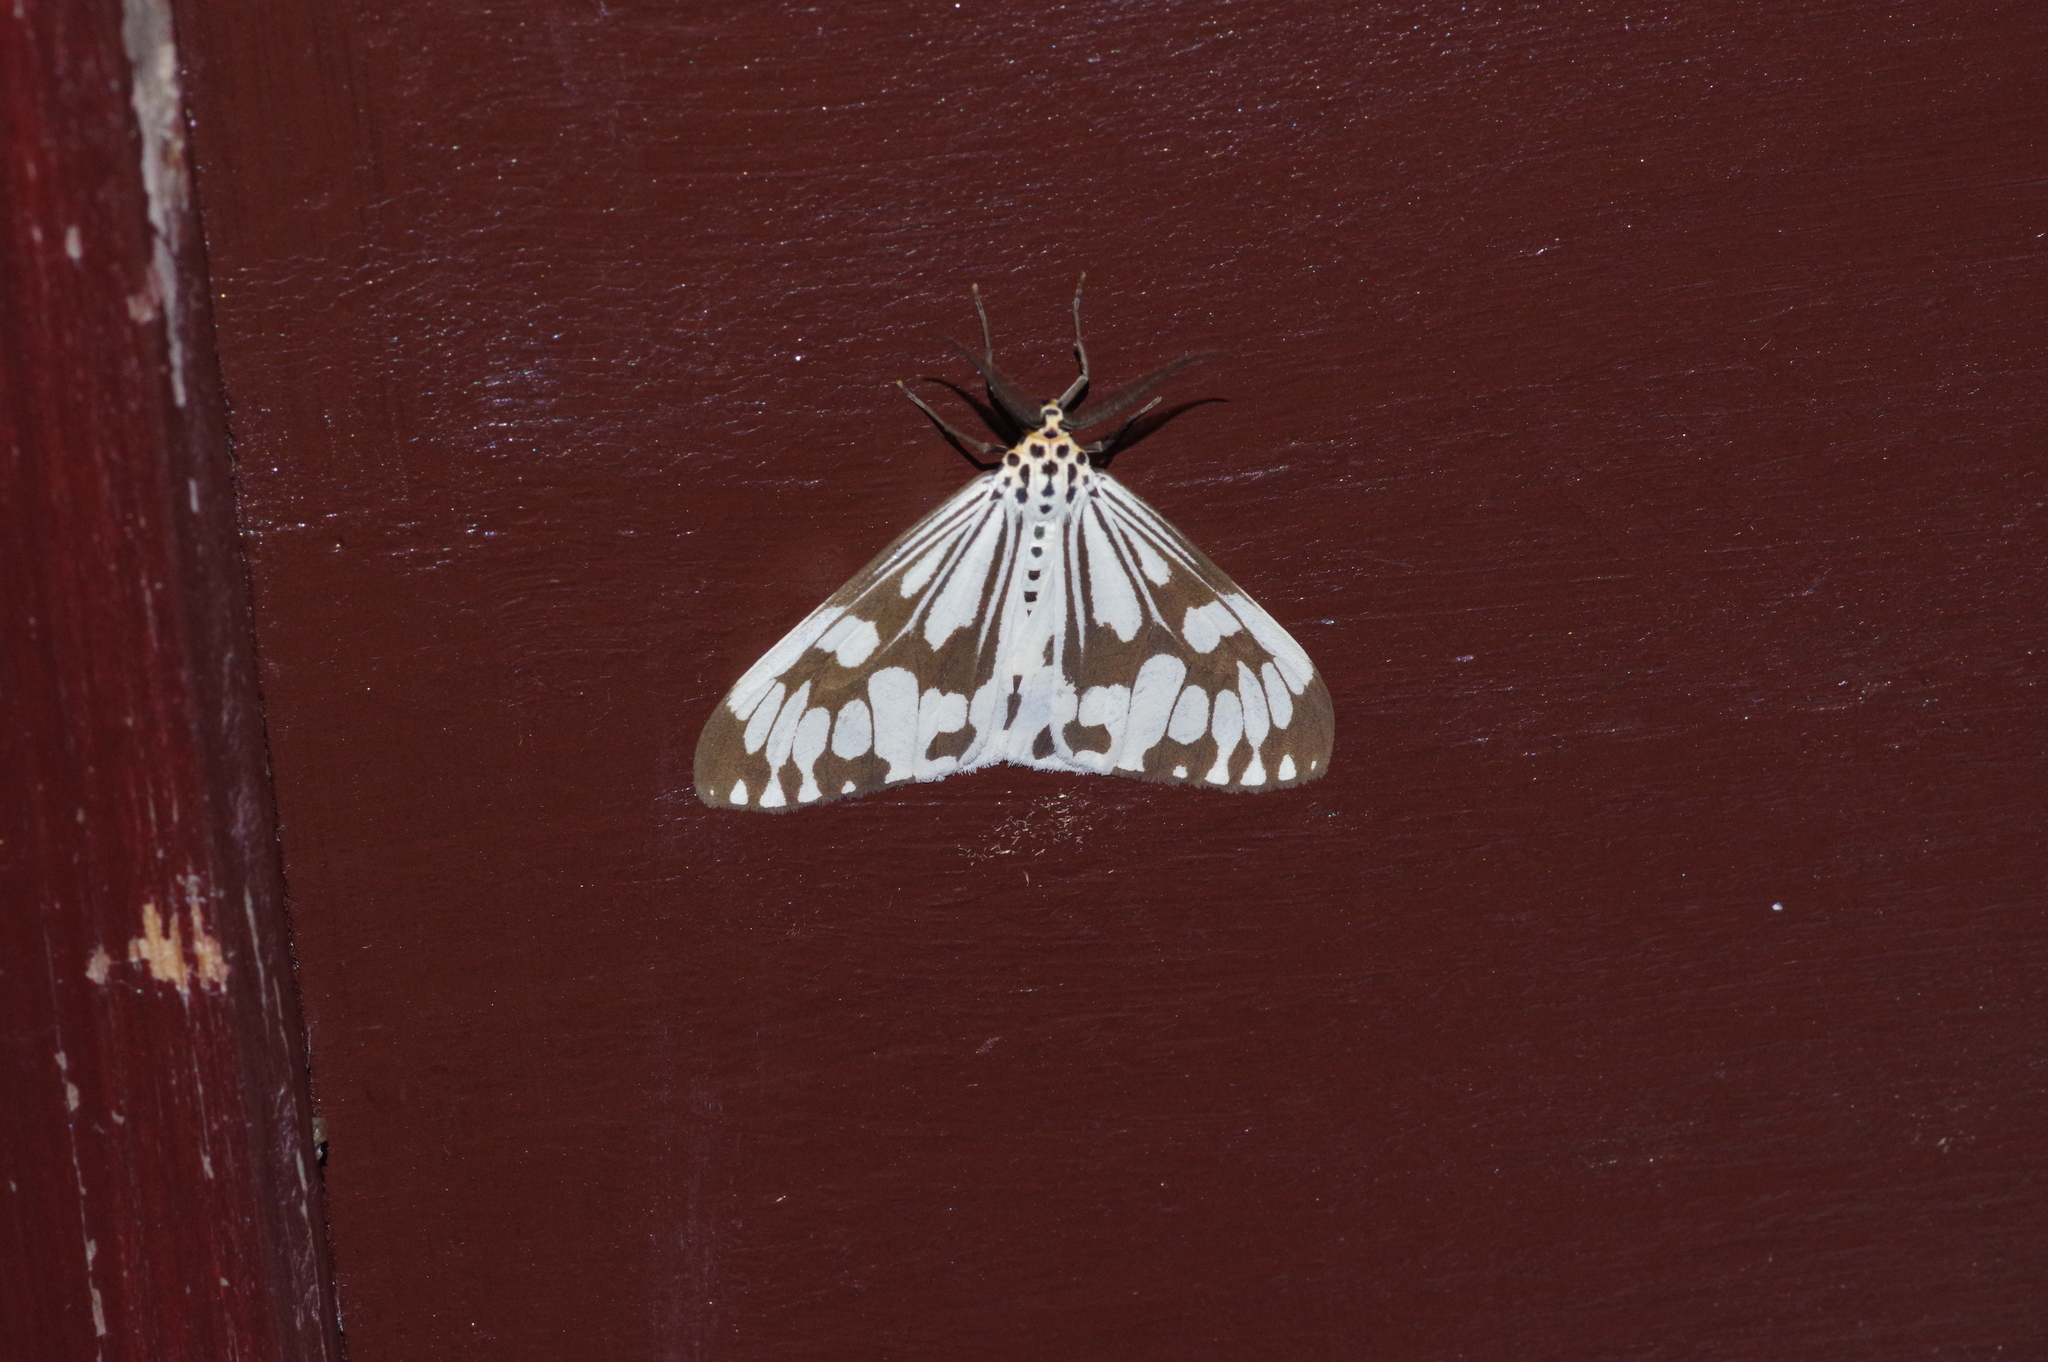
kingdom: Animalia
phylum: Arthropoda
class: Insecta
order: Lepidoptera
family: Erebidae
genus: Nyctemera
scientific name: Nyctemera adversata
